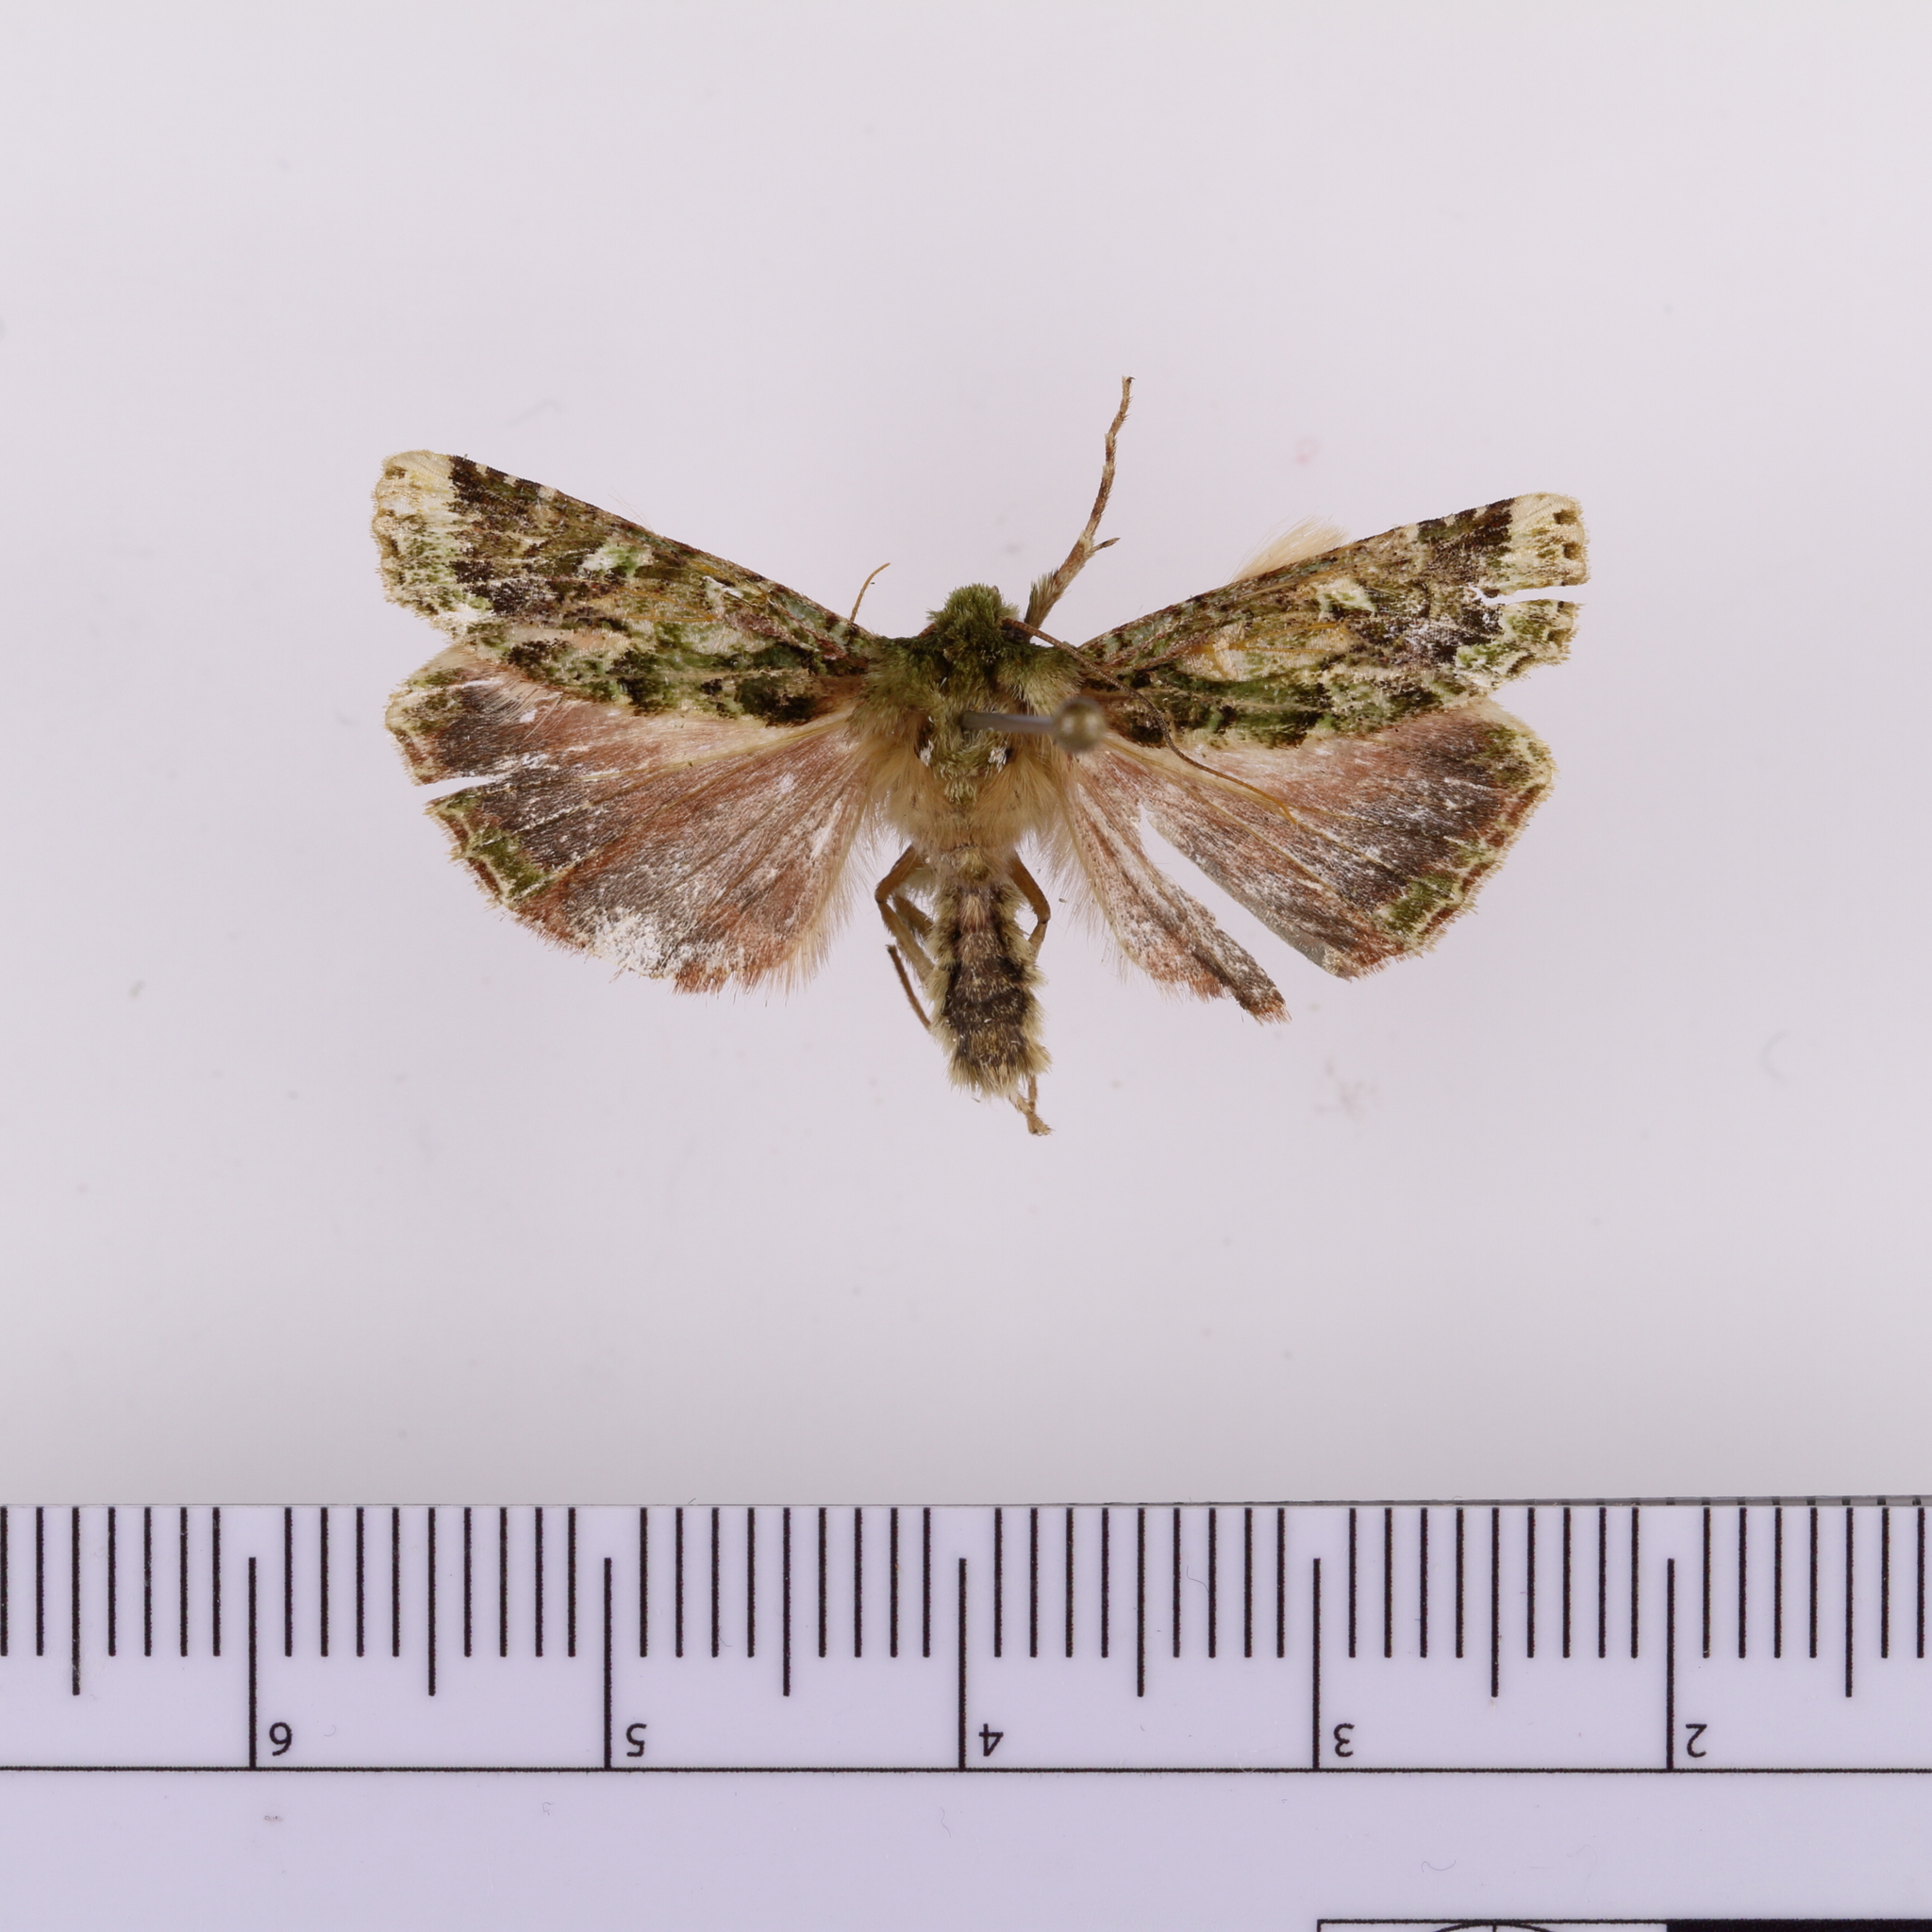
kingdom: Animalia
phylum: Arthropoda
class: Insecta
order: Lepidoptera
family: Noctuidae
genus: Feredayia
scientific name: Feredayia grammosa
